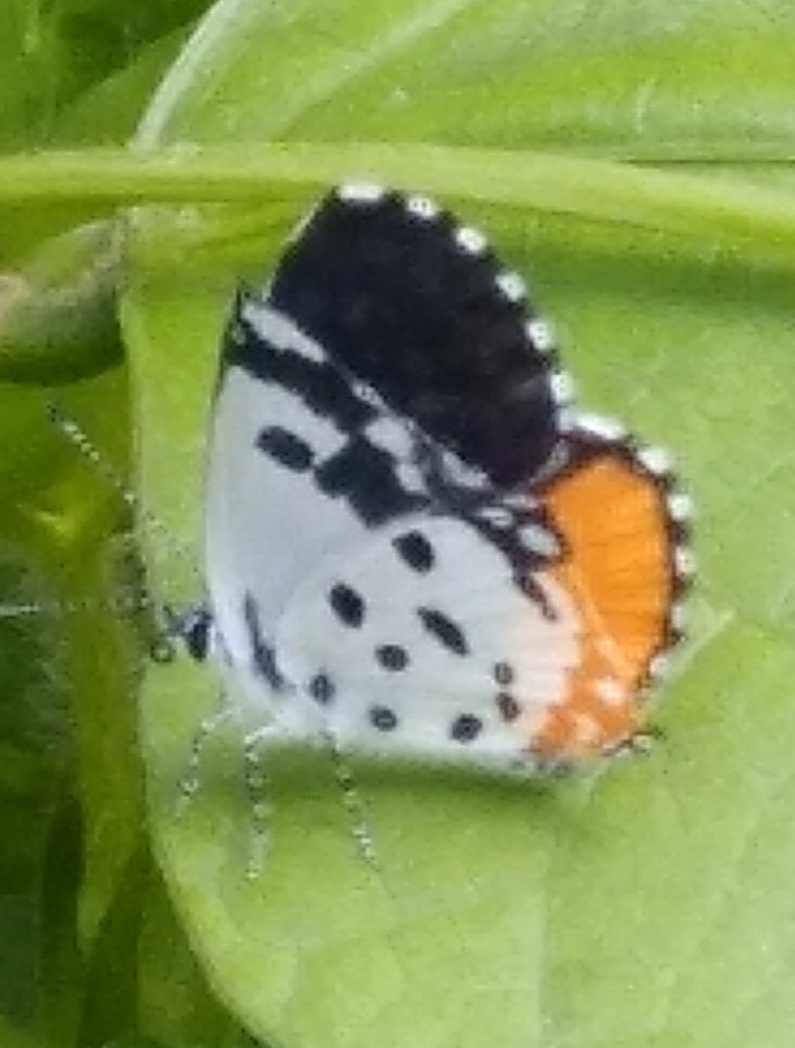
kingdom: Animalia
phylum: Arthropoda
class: Insecta
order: Lepidoptera
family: Lycaenidae
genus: Talicada
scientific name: Talicada nyseus
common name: Red pierrot
